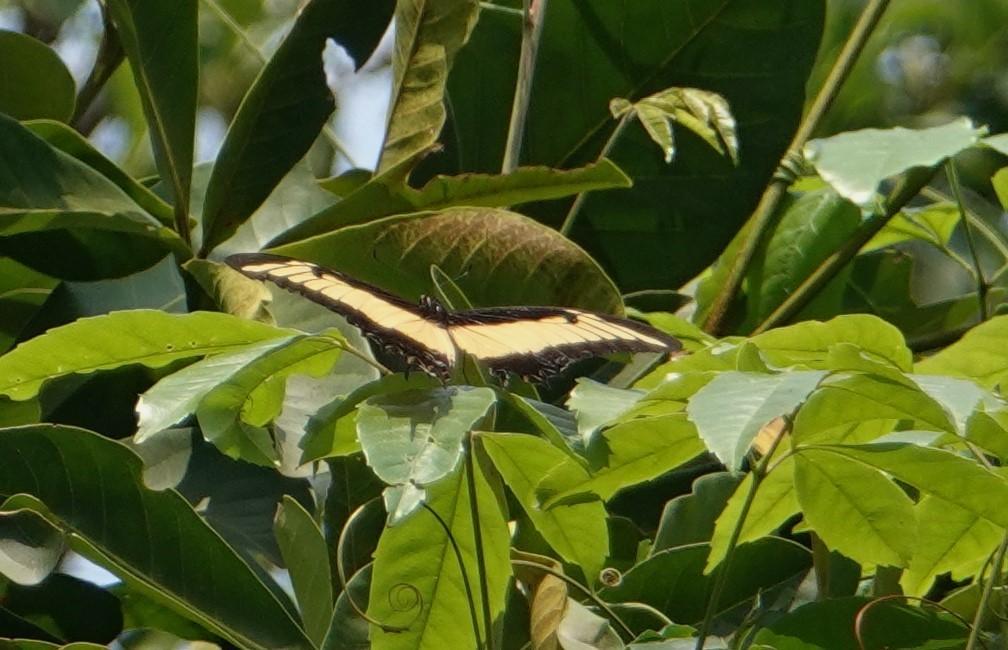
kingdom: Animalia
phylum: Arthropoda
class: Insecta
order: Lepidoptera
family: Papilionidae
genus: Papilio
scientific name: Papilio androgeus
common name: Androgeus swallowtail
